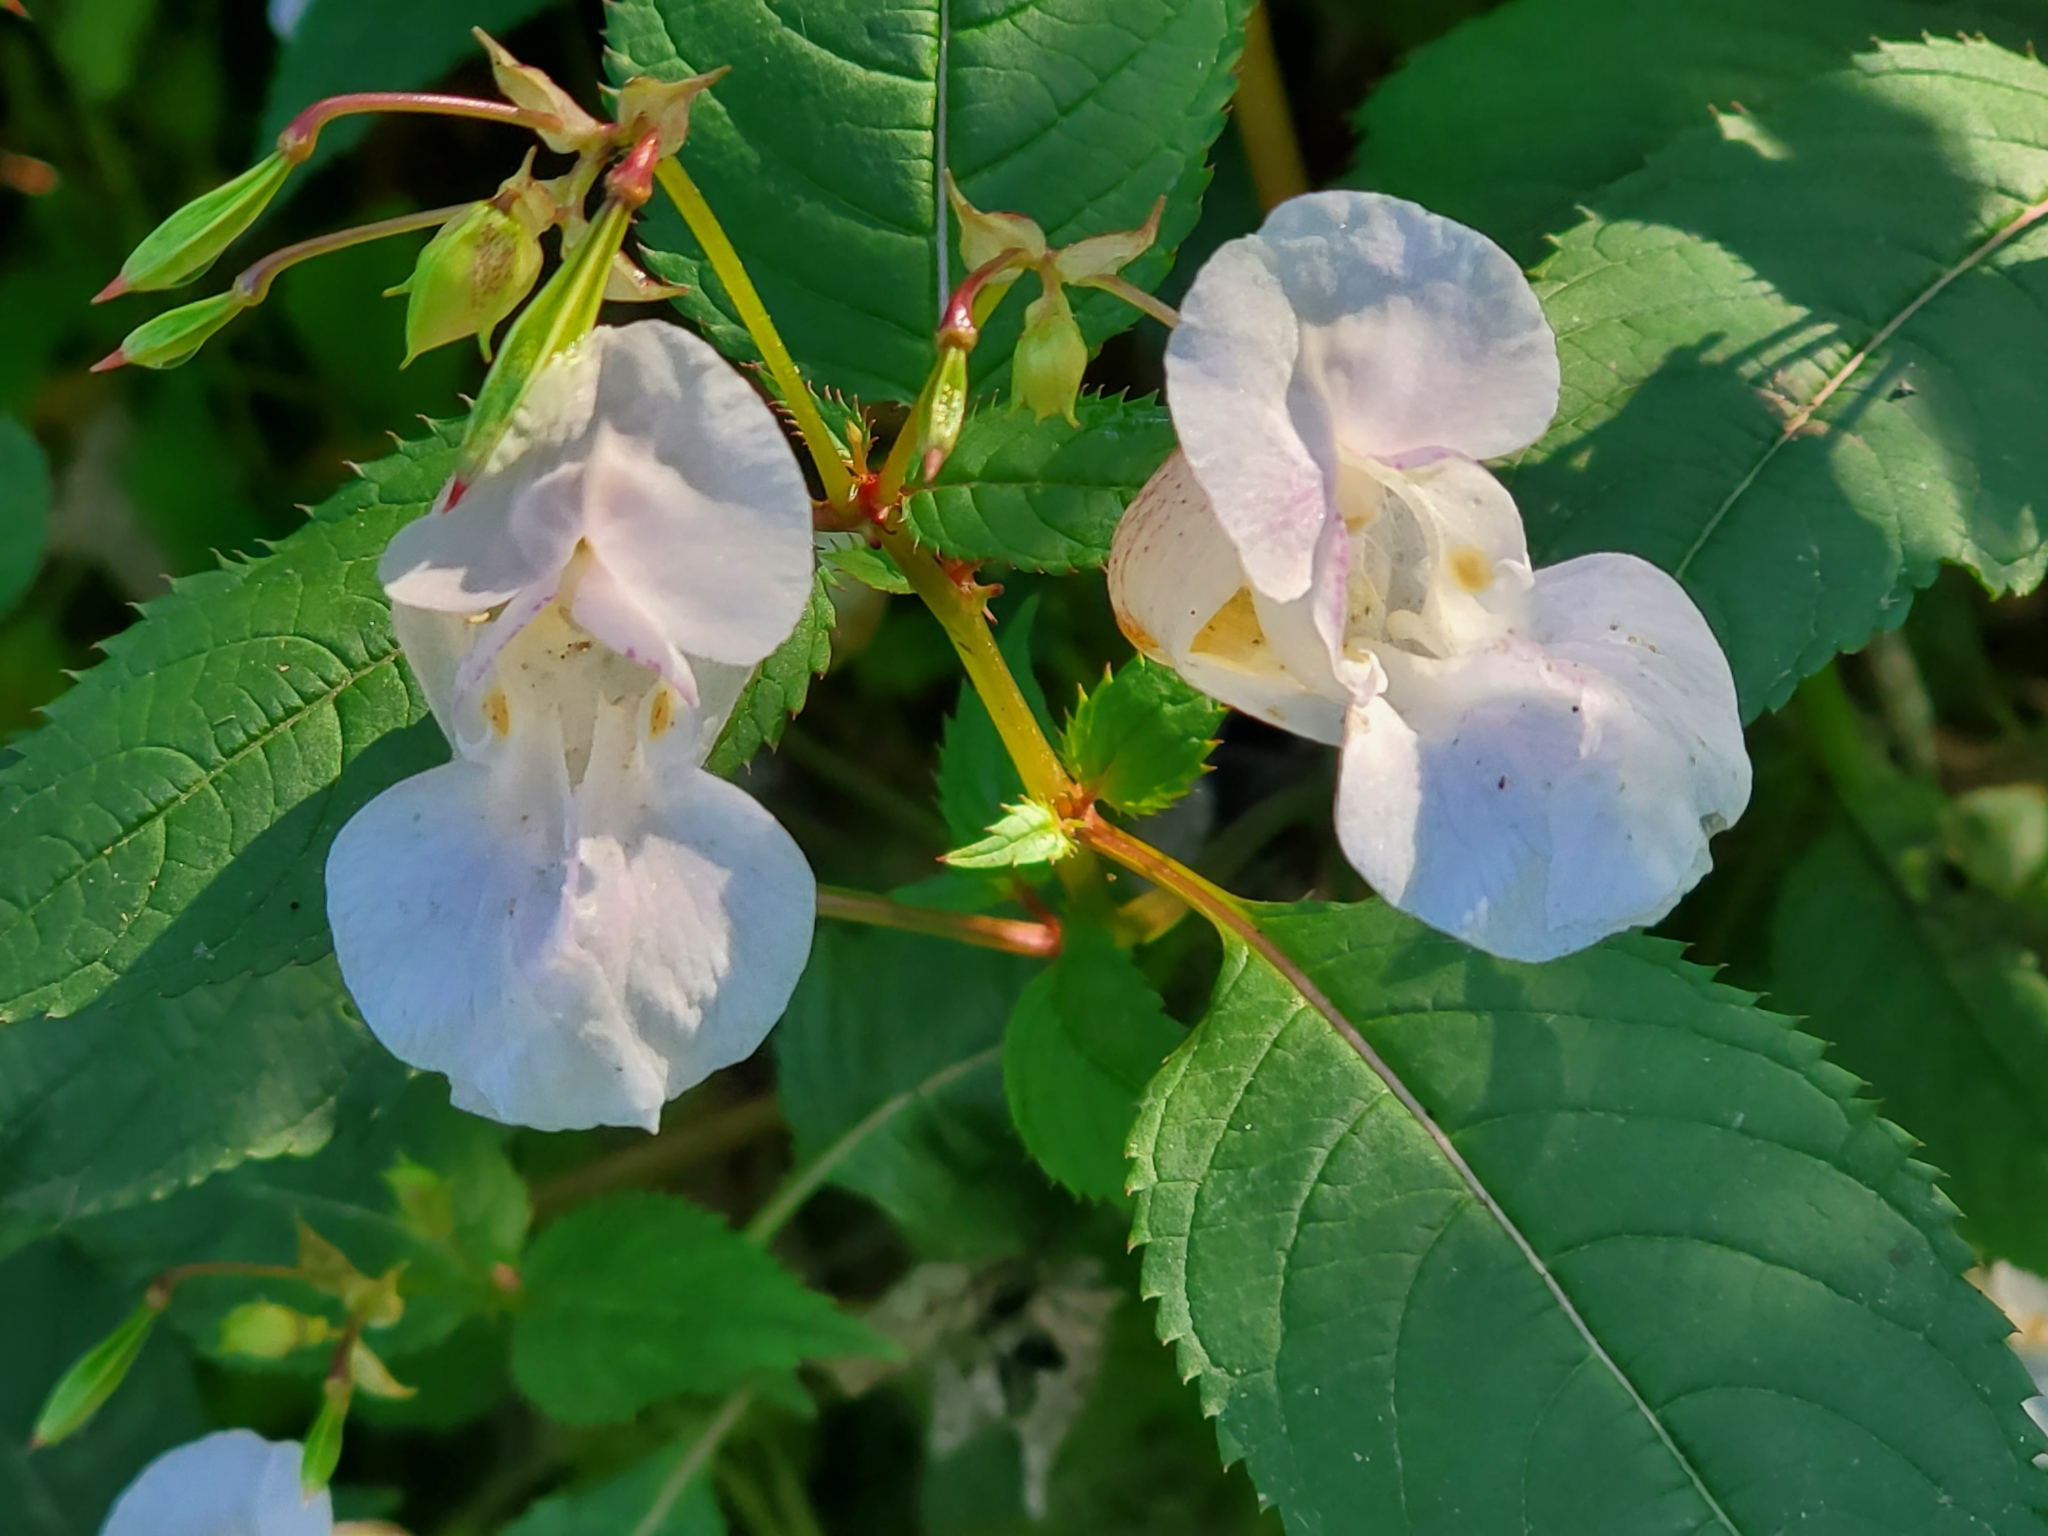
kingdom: Plantae
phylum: Tracheophyta
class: Magnoliopsida
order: Ericales
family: Balsaminaceae
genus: Impatiens
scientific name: Impatiens glandulifera
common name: Himalayan balsam
